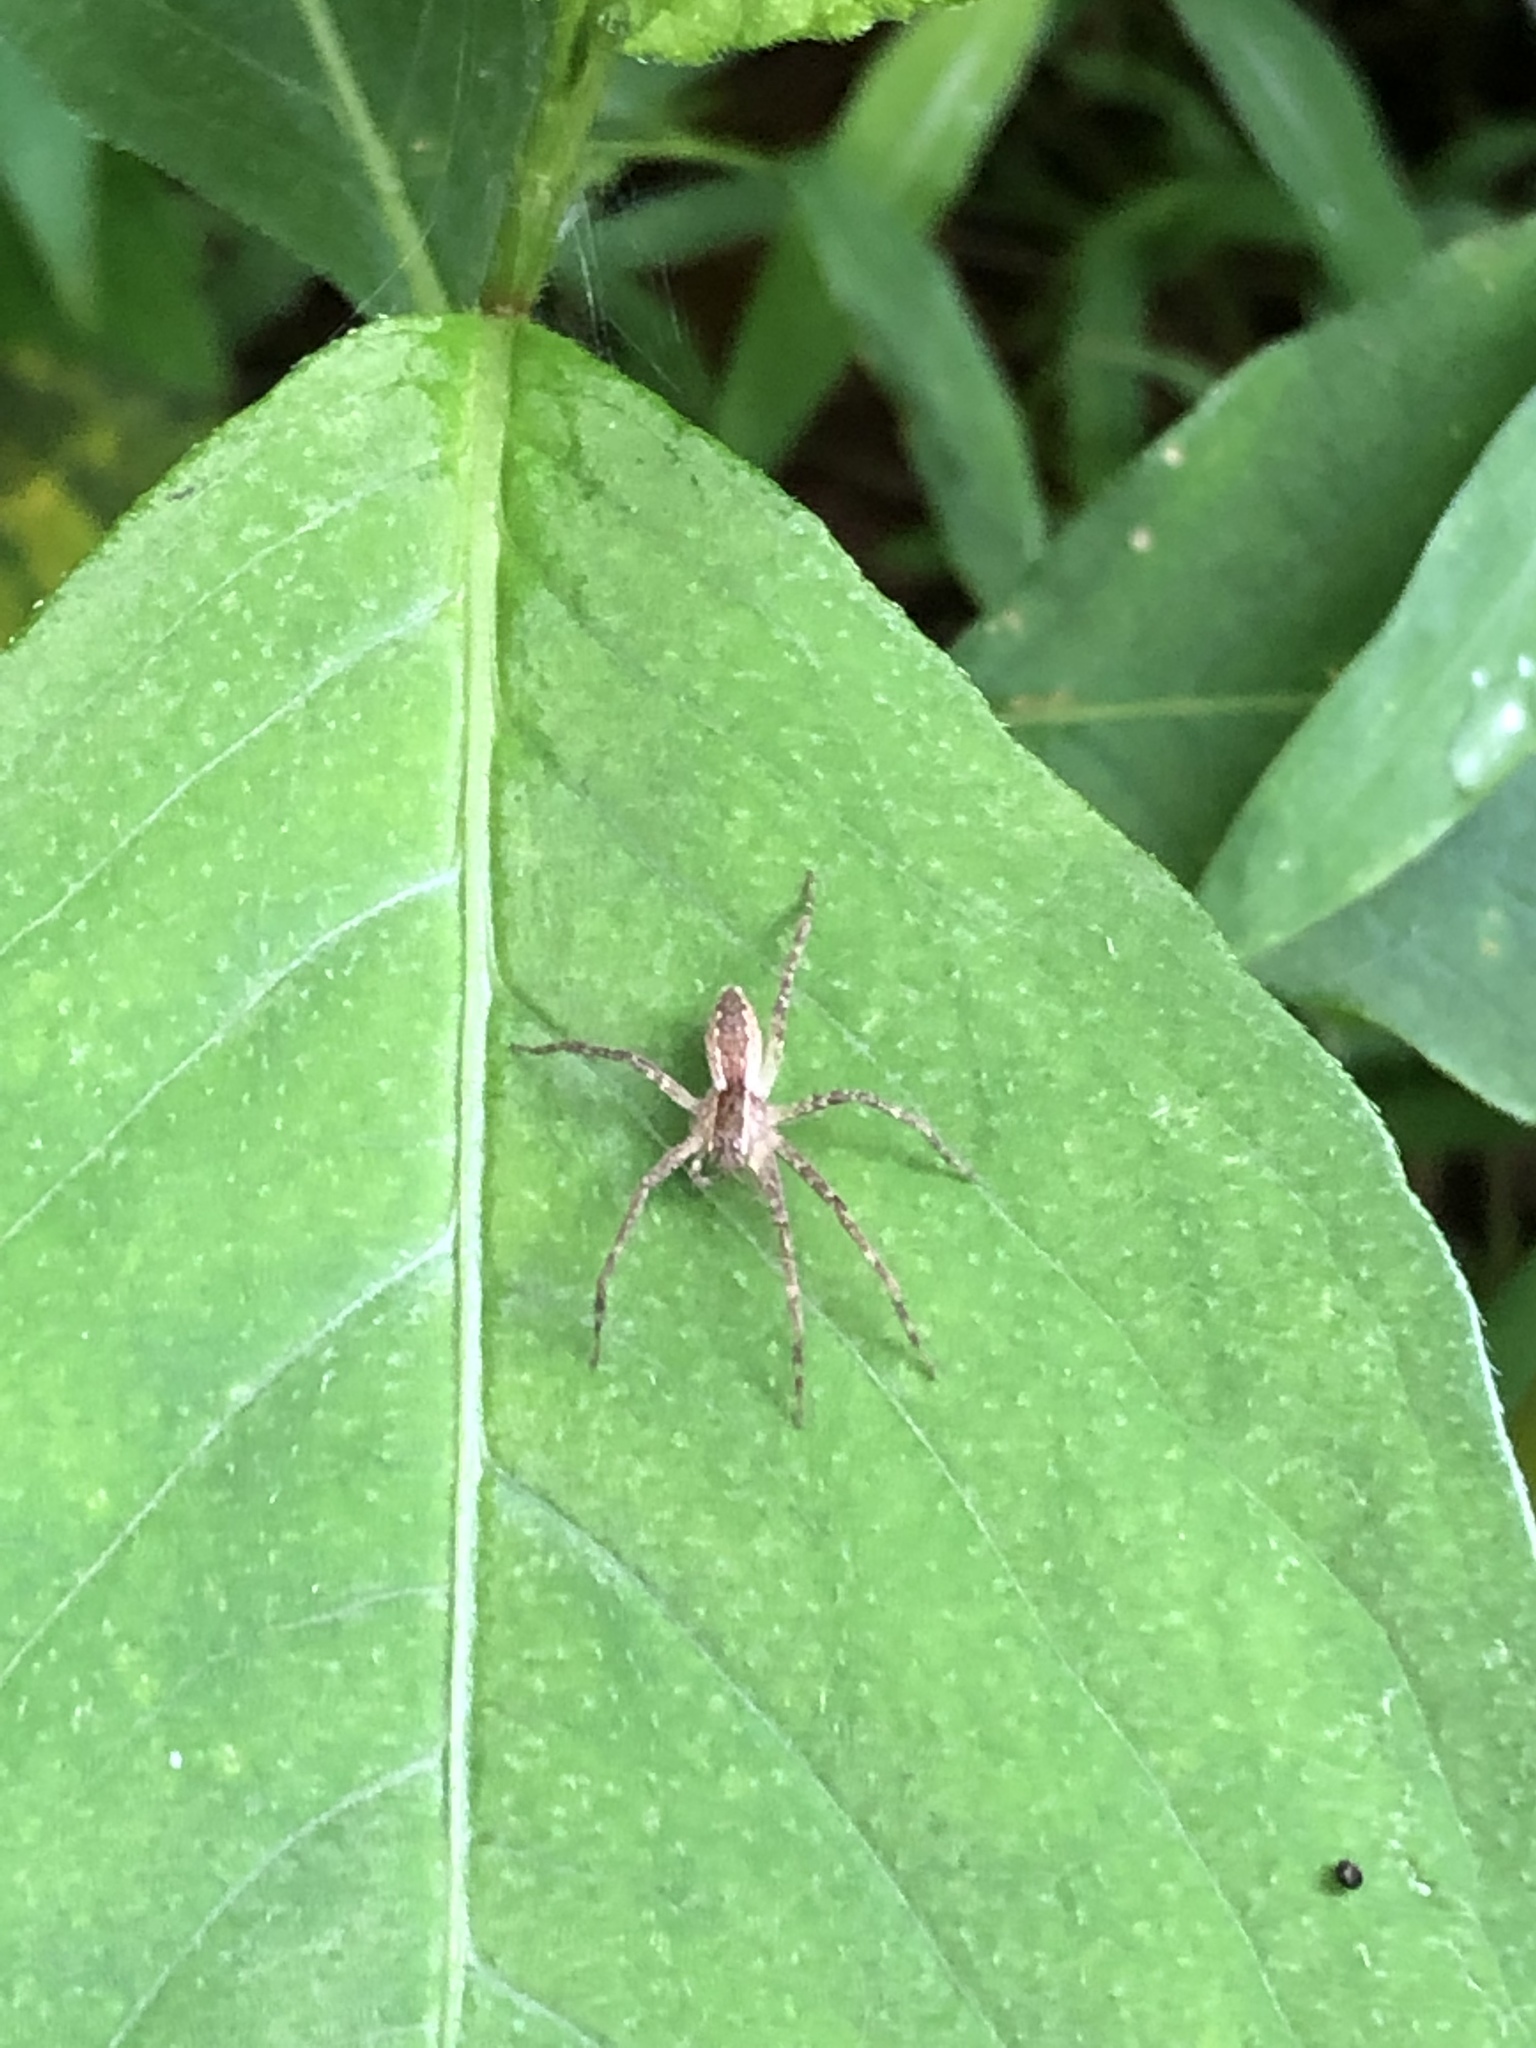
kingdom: Animalia
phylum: Arthropoda
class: Arachnida
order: Araneae
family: Pisauridae
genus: Pisaurina
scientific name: Pisaurina mira
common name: American nursery web spider
